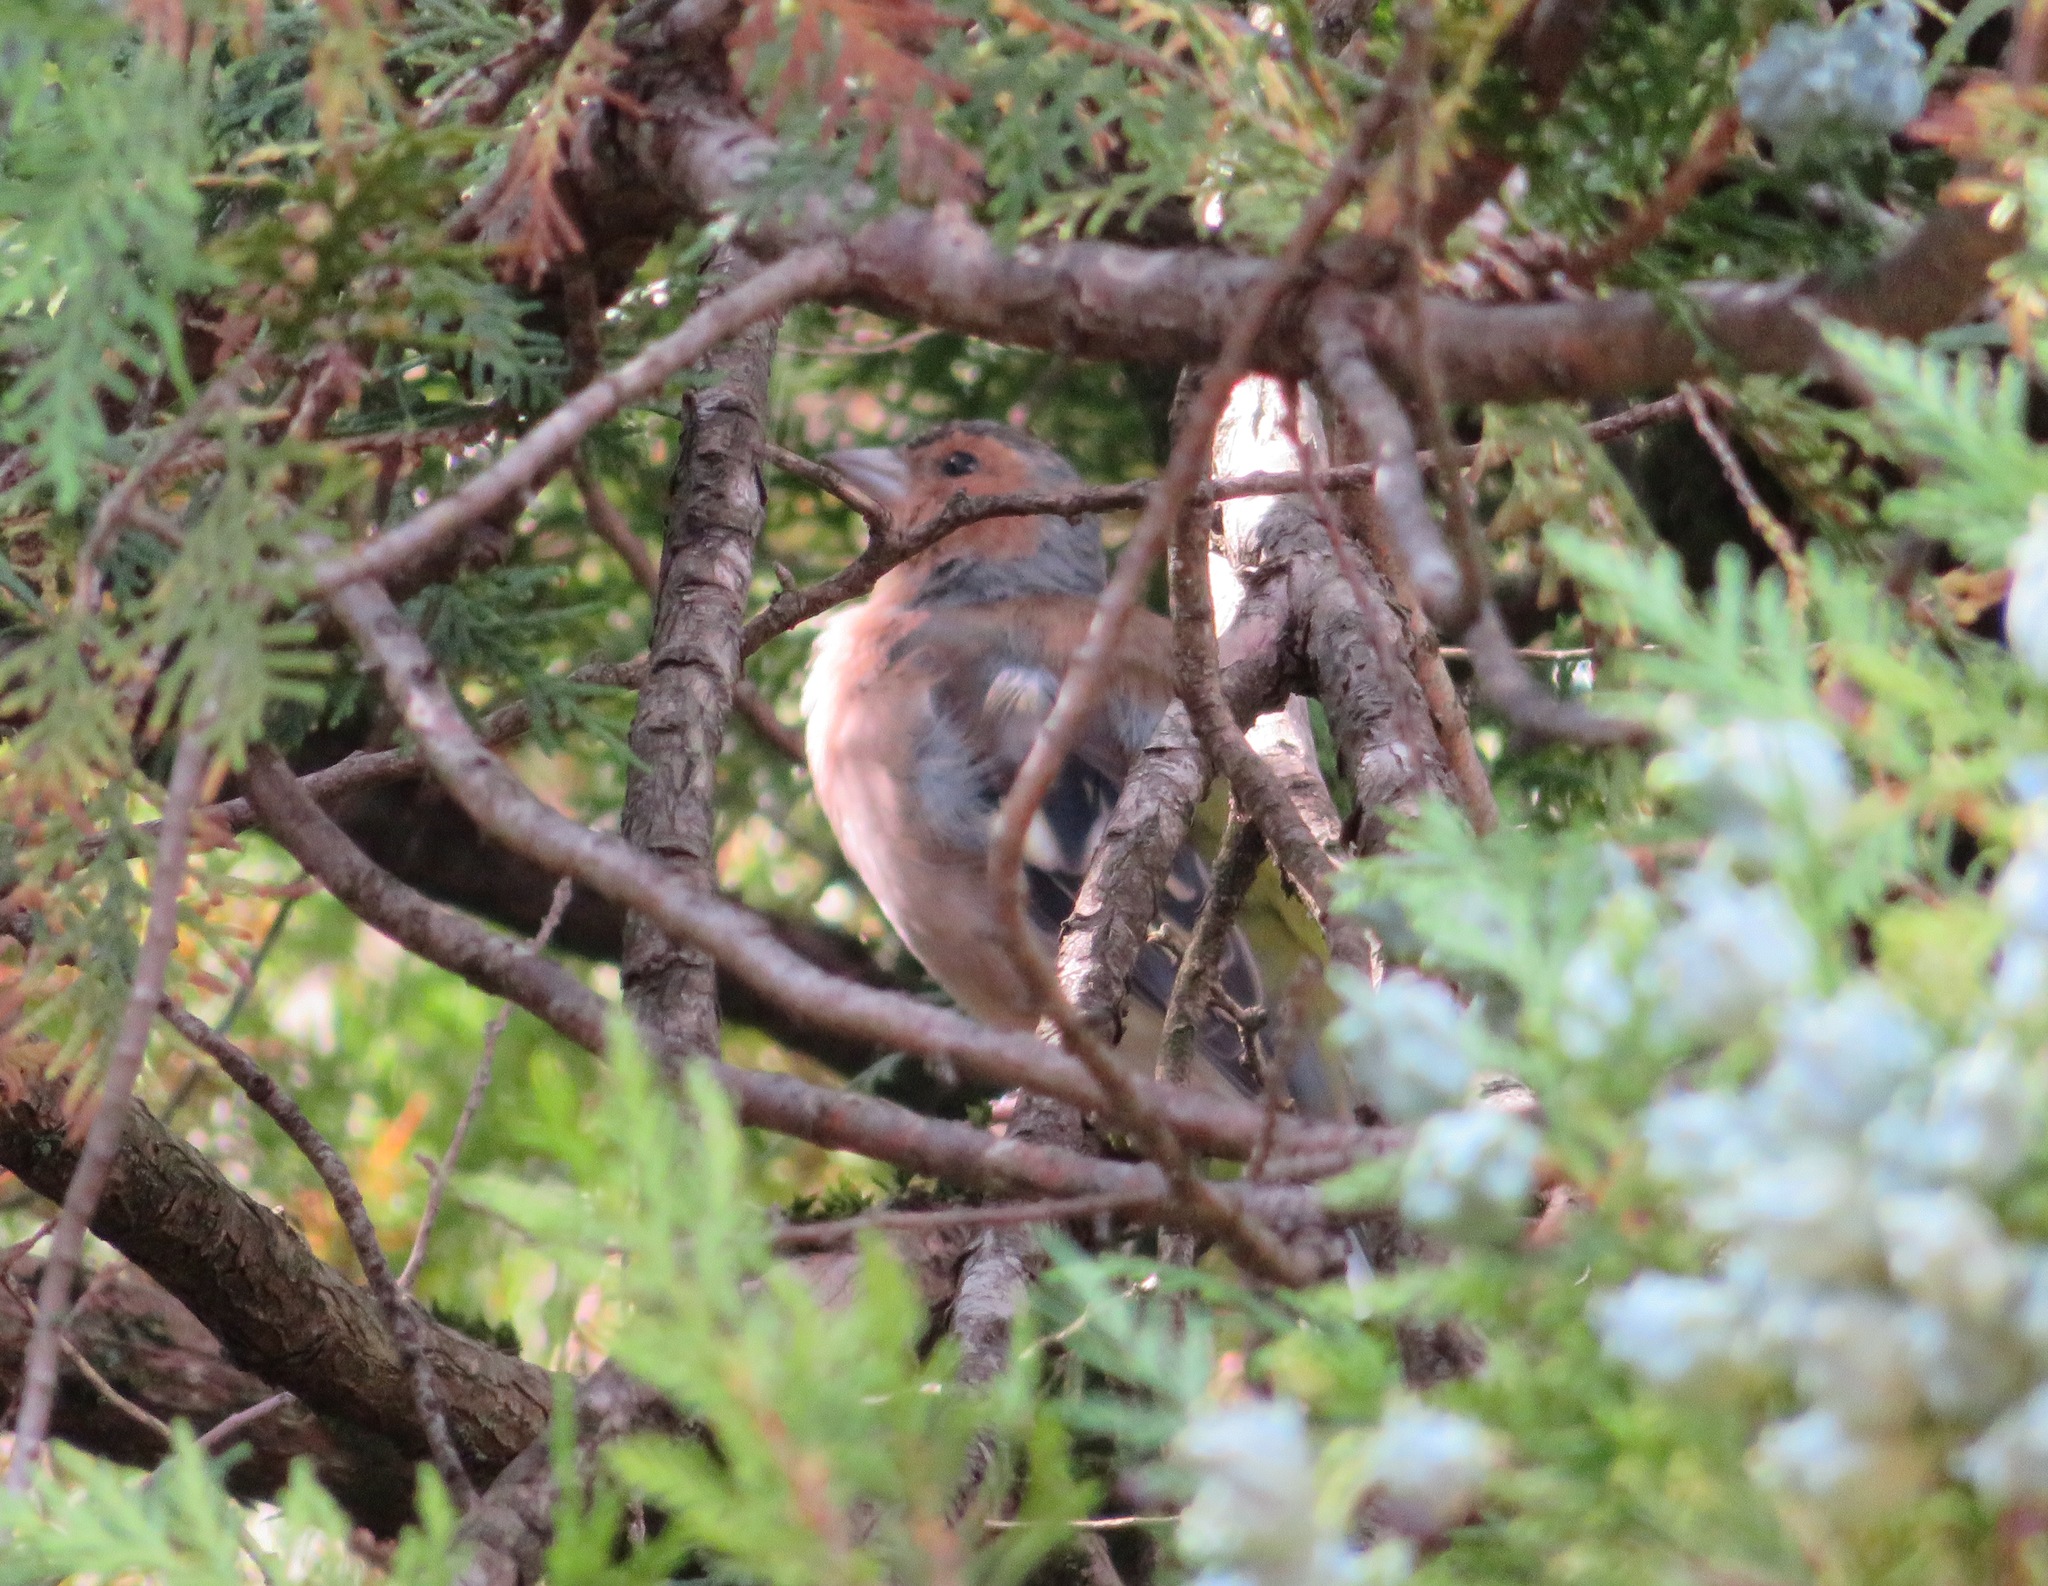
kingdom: Animalia
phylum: Chordata
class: Aves
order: Passeriformes
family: Fringillidae
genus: Fringilla
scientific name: Fringilla coelebs
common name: Common chaffinch
